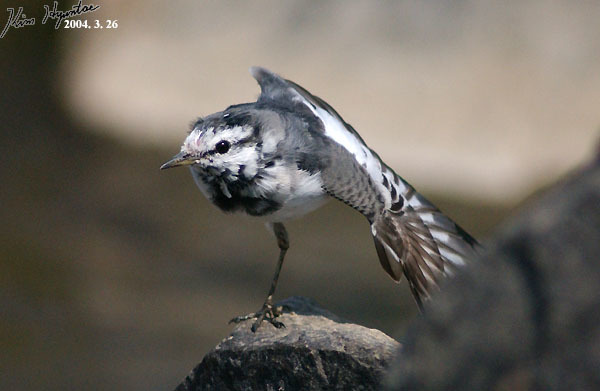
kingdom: Animalia
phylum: Chordata
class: Aves
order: Passeriformes
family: Motacillidae
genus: Motacilla
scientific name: Motacilla alba
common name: White wagtail
